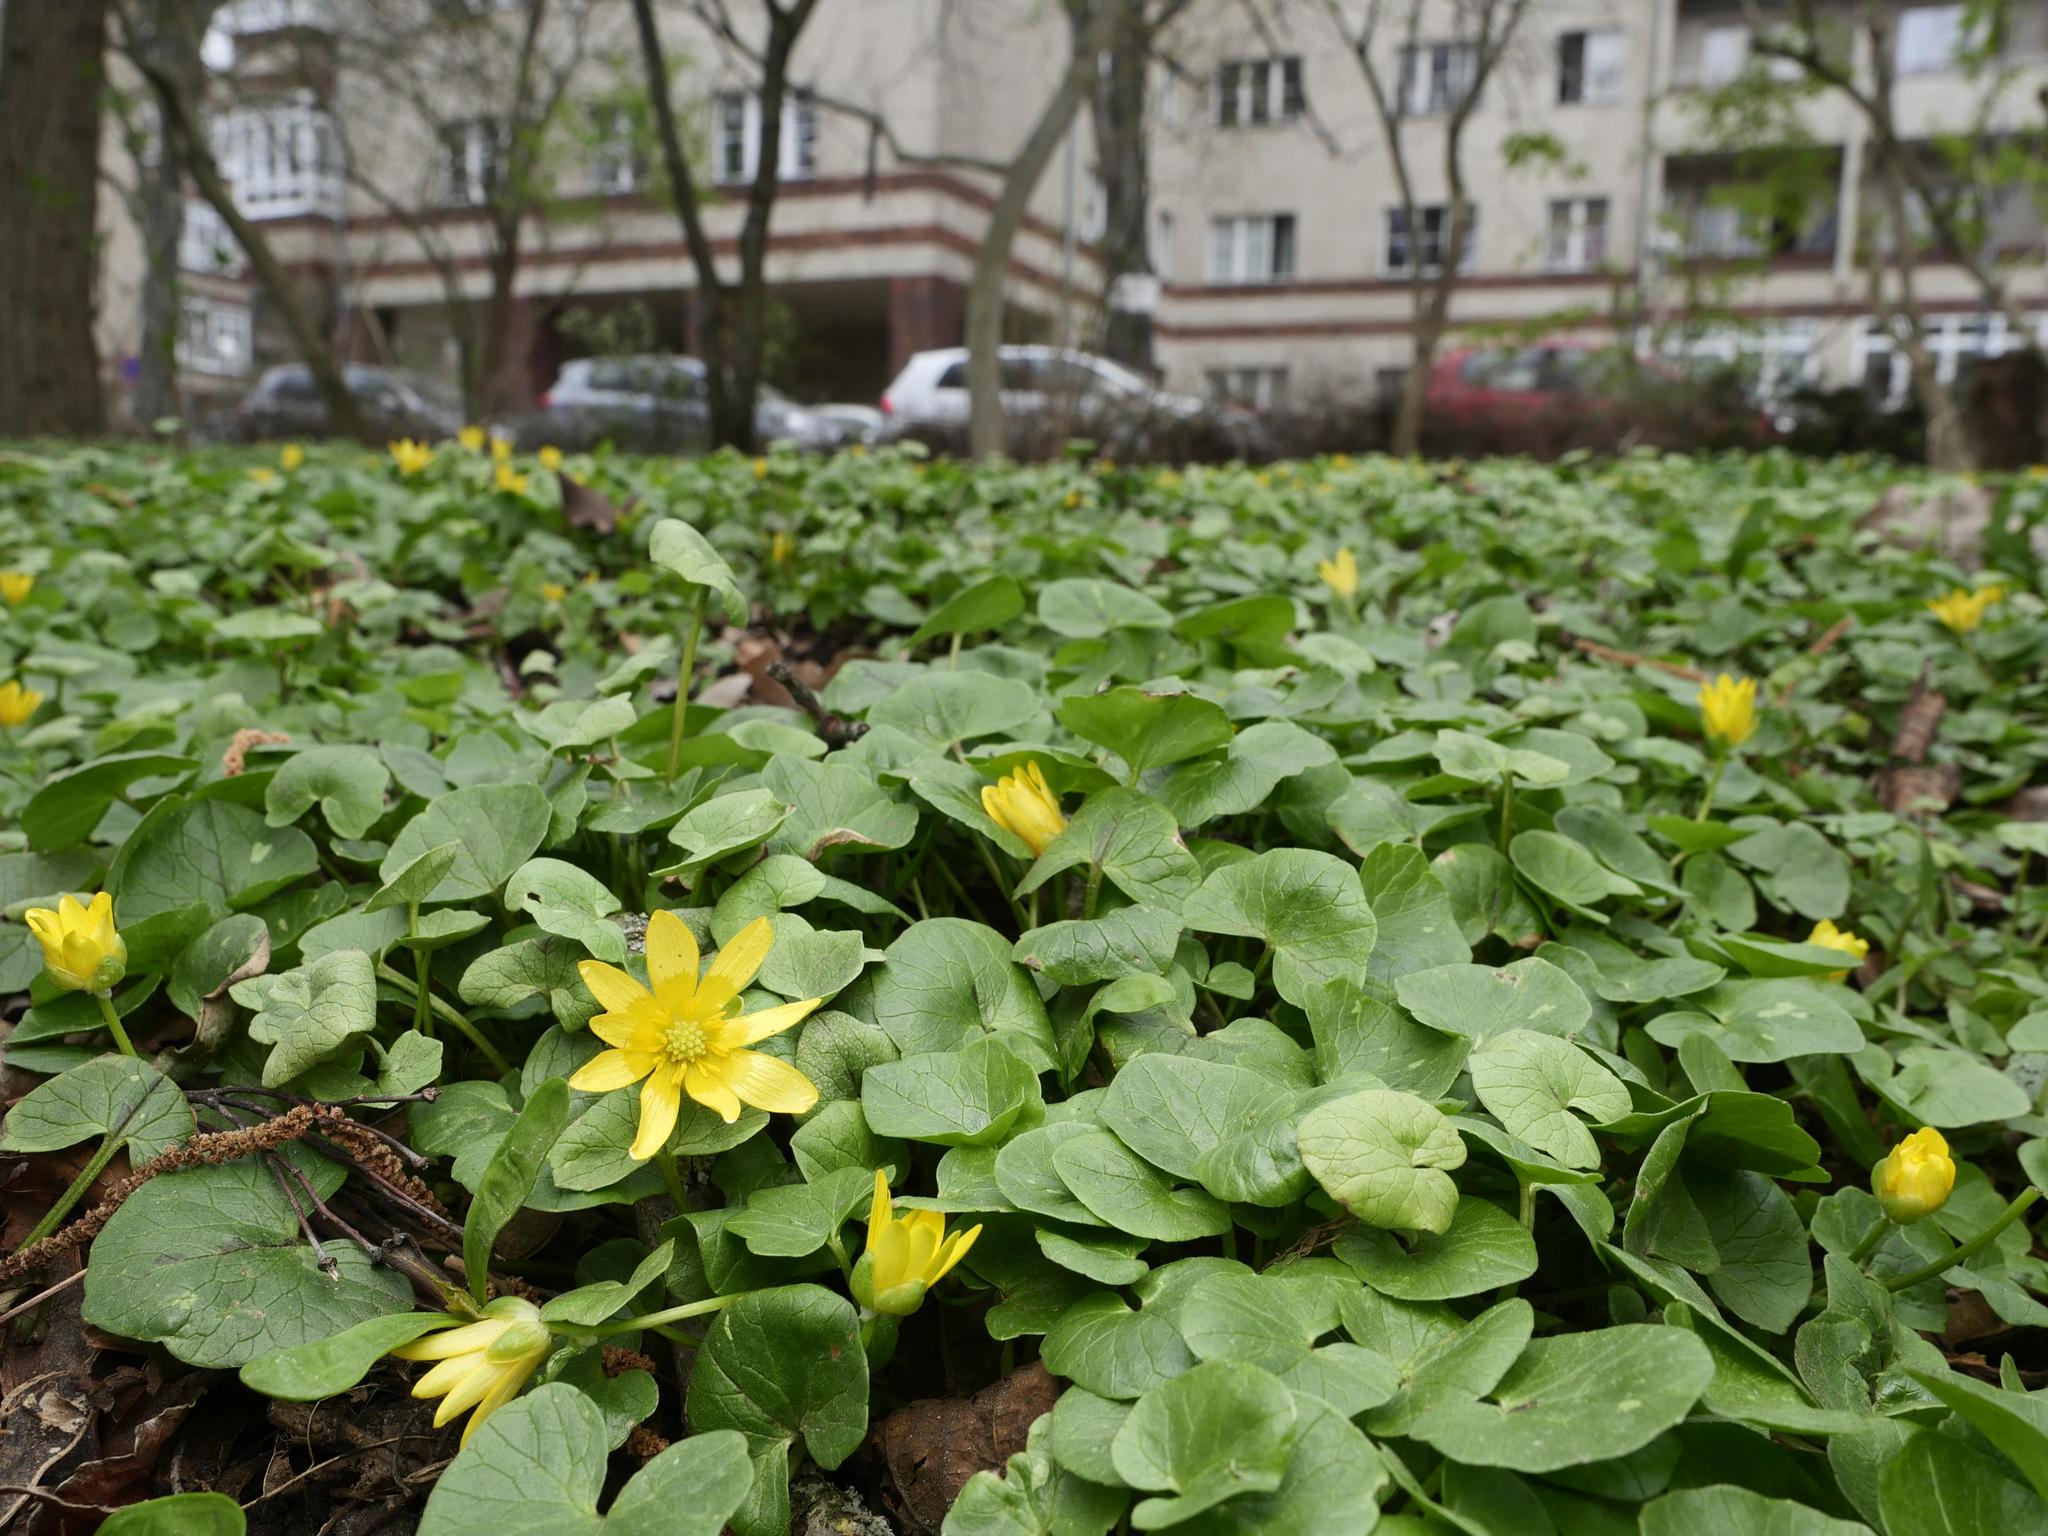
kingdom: Plantae
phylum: Tracheophyta
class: Magnoliopsida
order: Ranunculales
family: Ranunculaceae
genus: Ficaria
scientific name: Ficaria verna
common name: Lesser celandine
